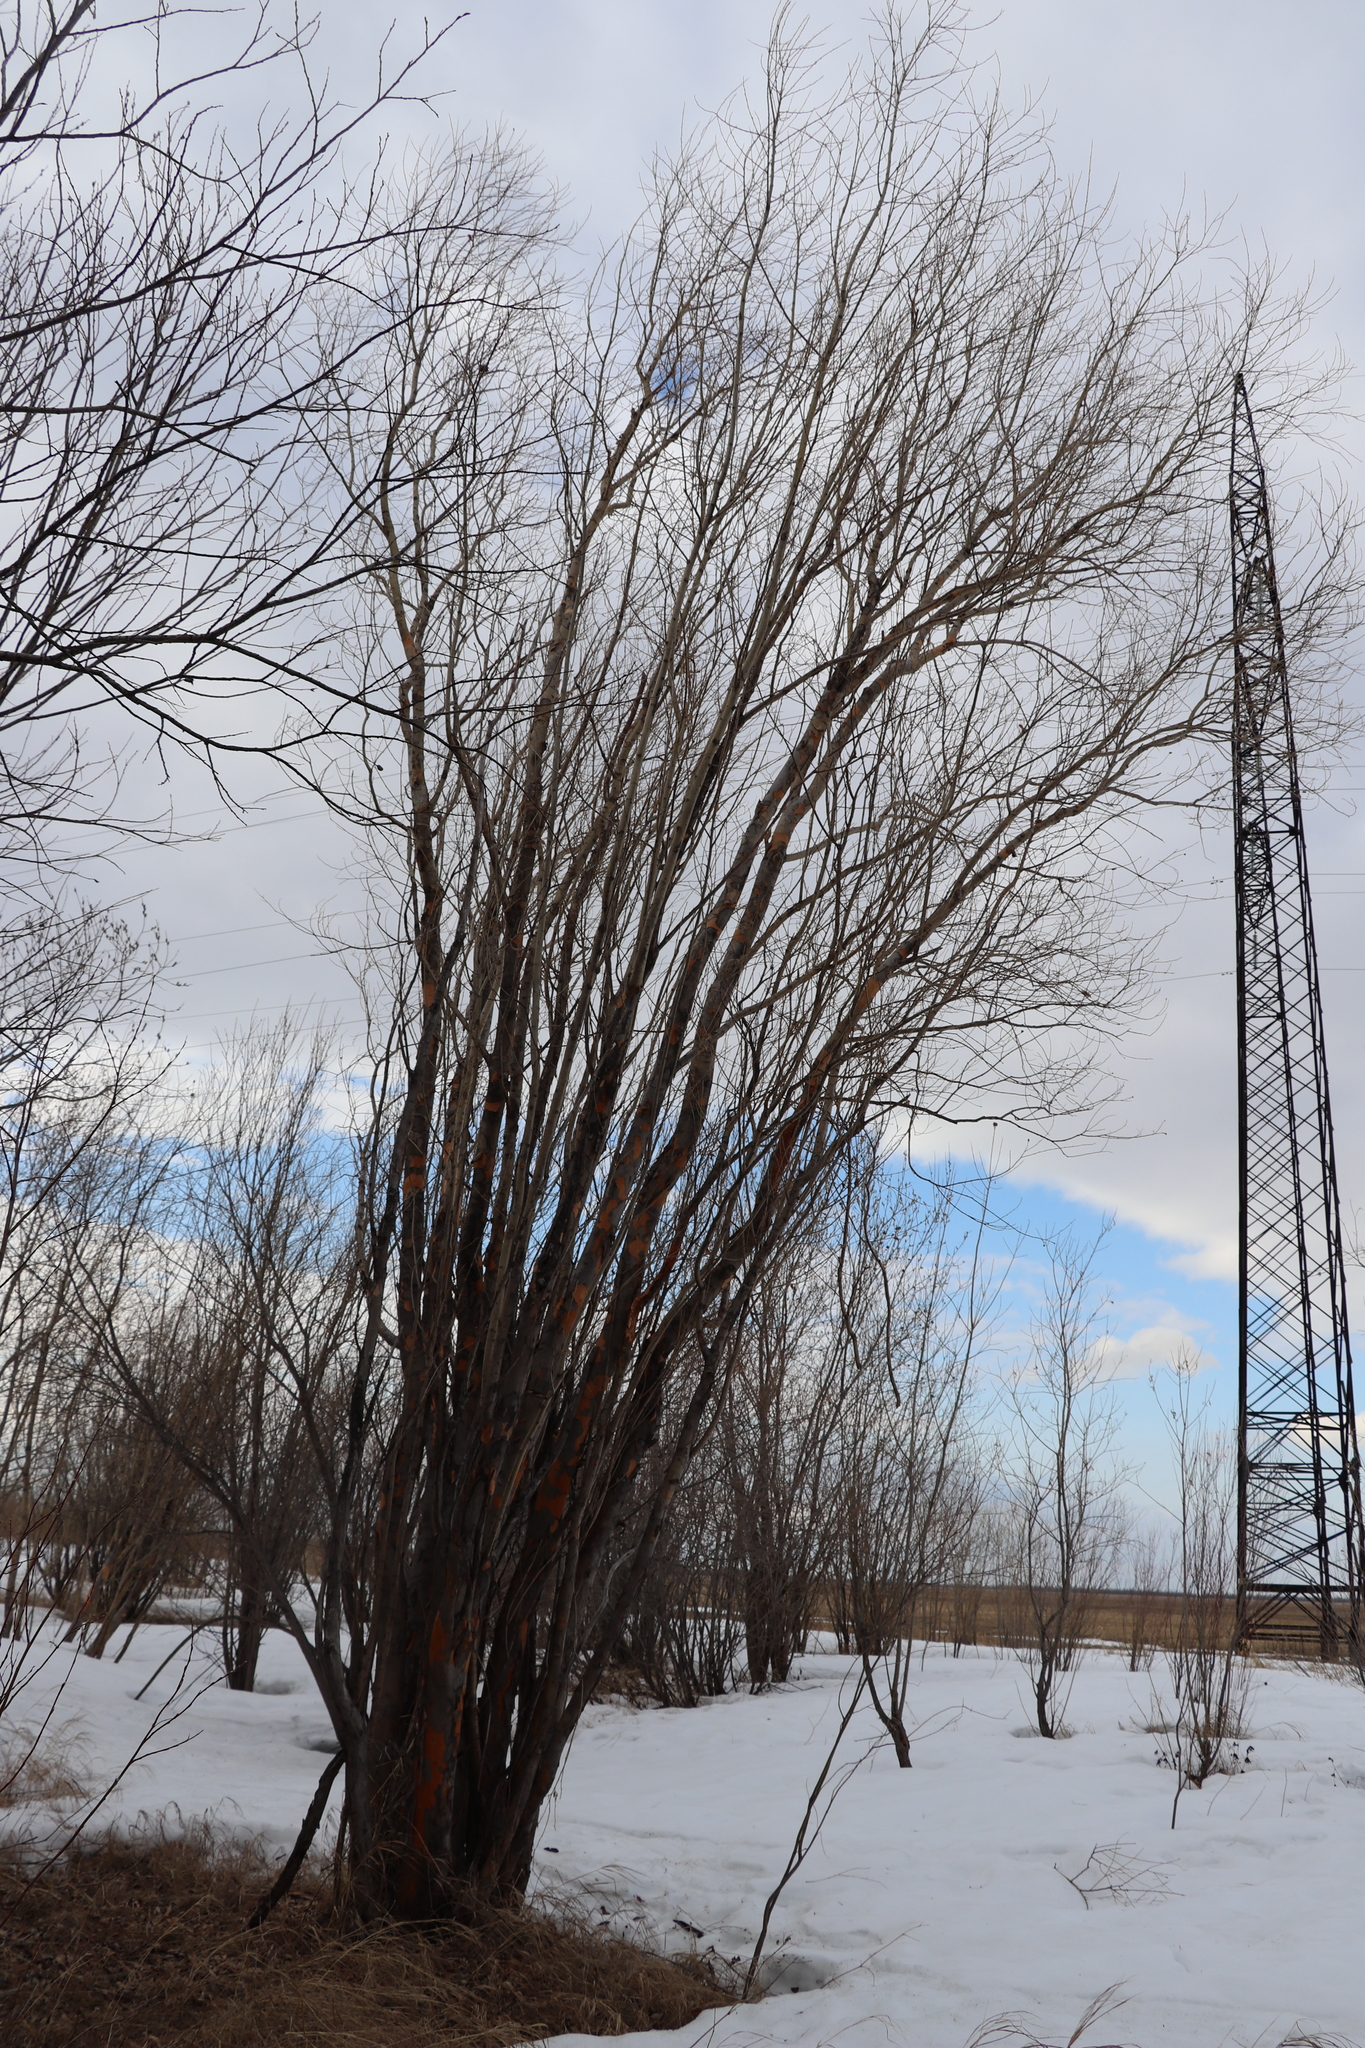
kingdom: Plantae
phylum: Tracheophyta
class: Magnoliopsida
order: Malpighiales
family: Salicaceae
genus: Salix
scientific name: Salix triandra
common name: Almond willow
